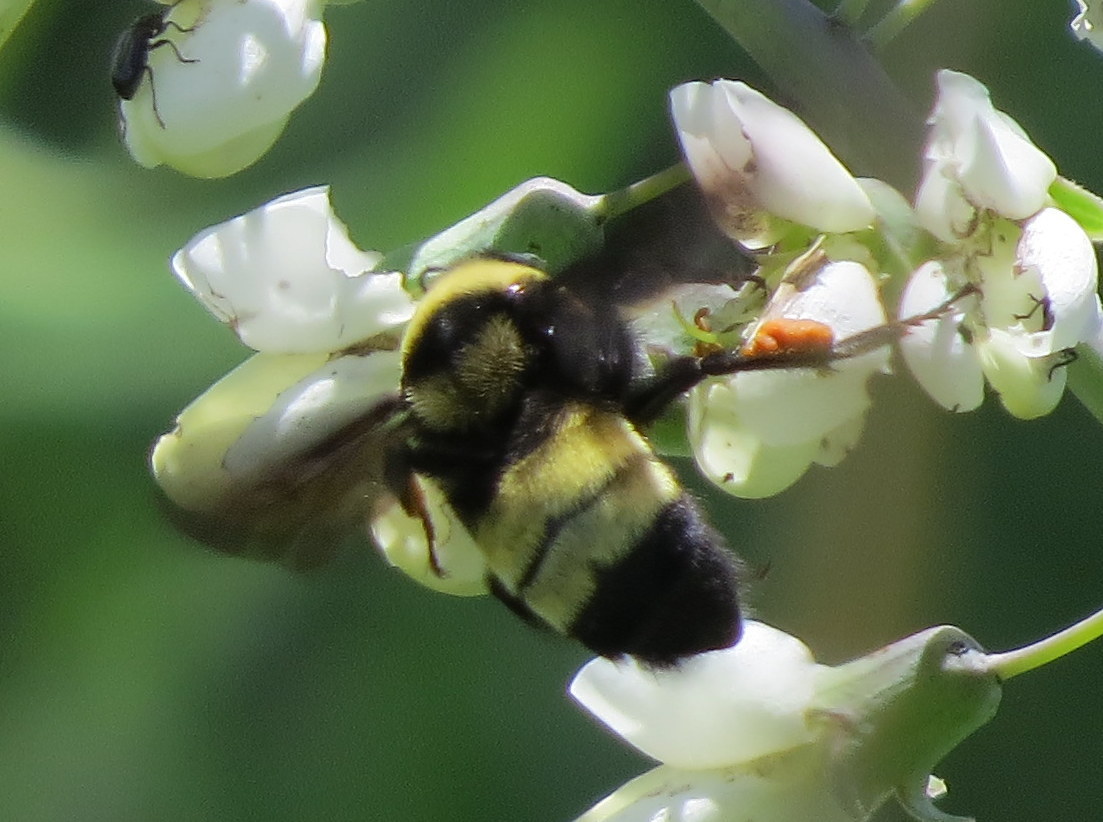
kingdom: Animalia
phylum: Arthropoda
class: Insecta
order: Hymenoptera
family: Apidae
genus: Bombus
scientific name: Bombus auricomus
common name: Black and gold bumble bee
